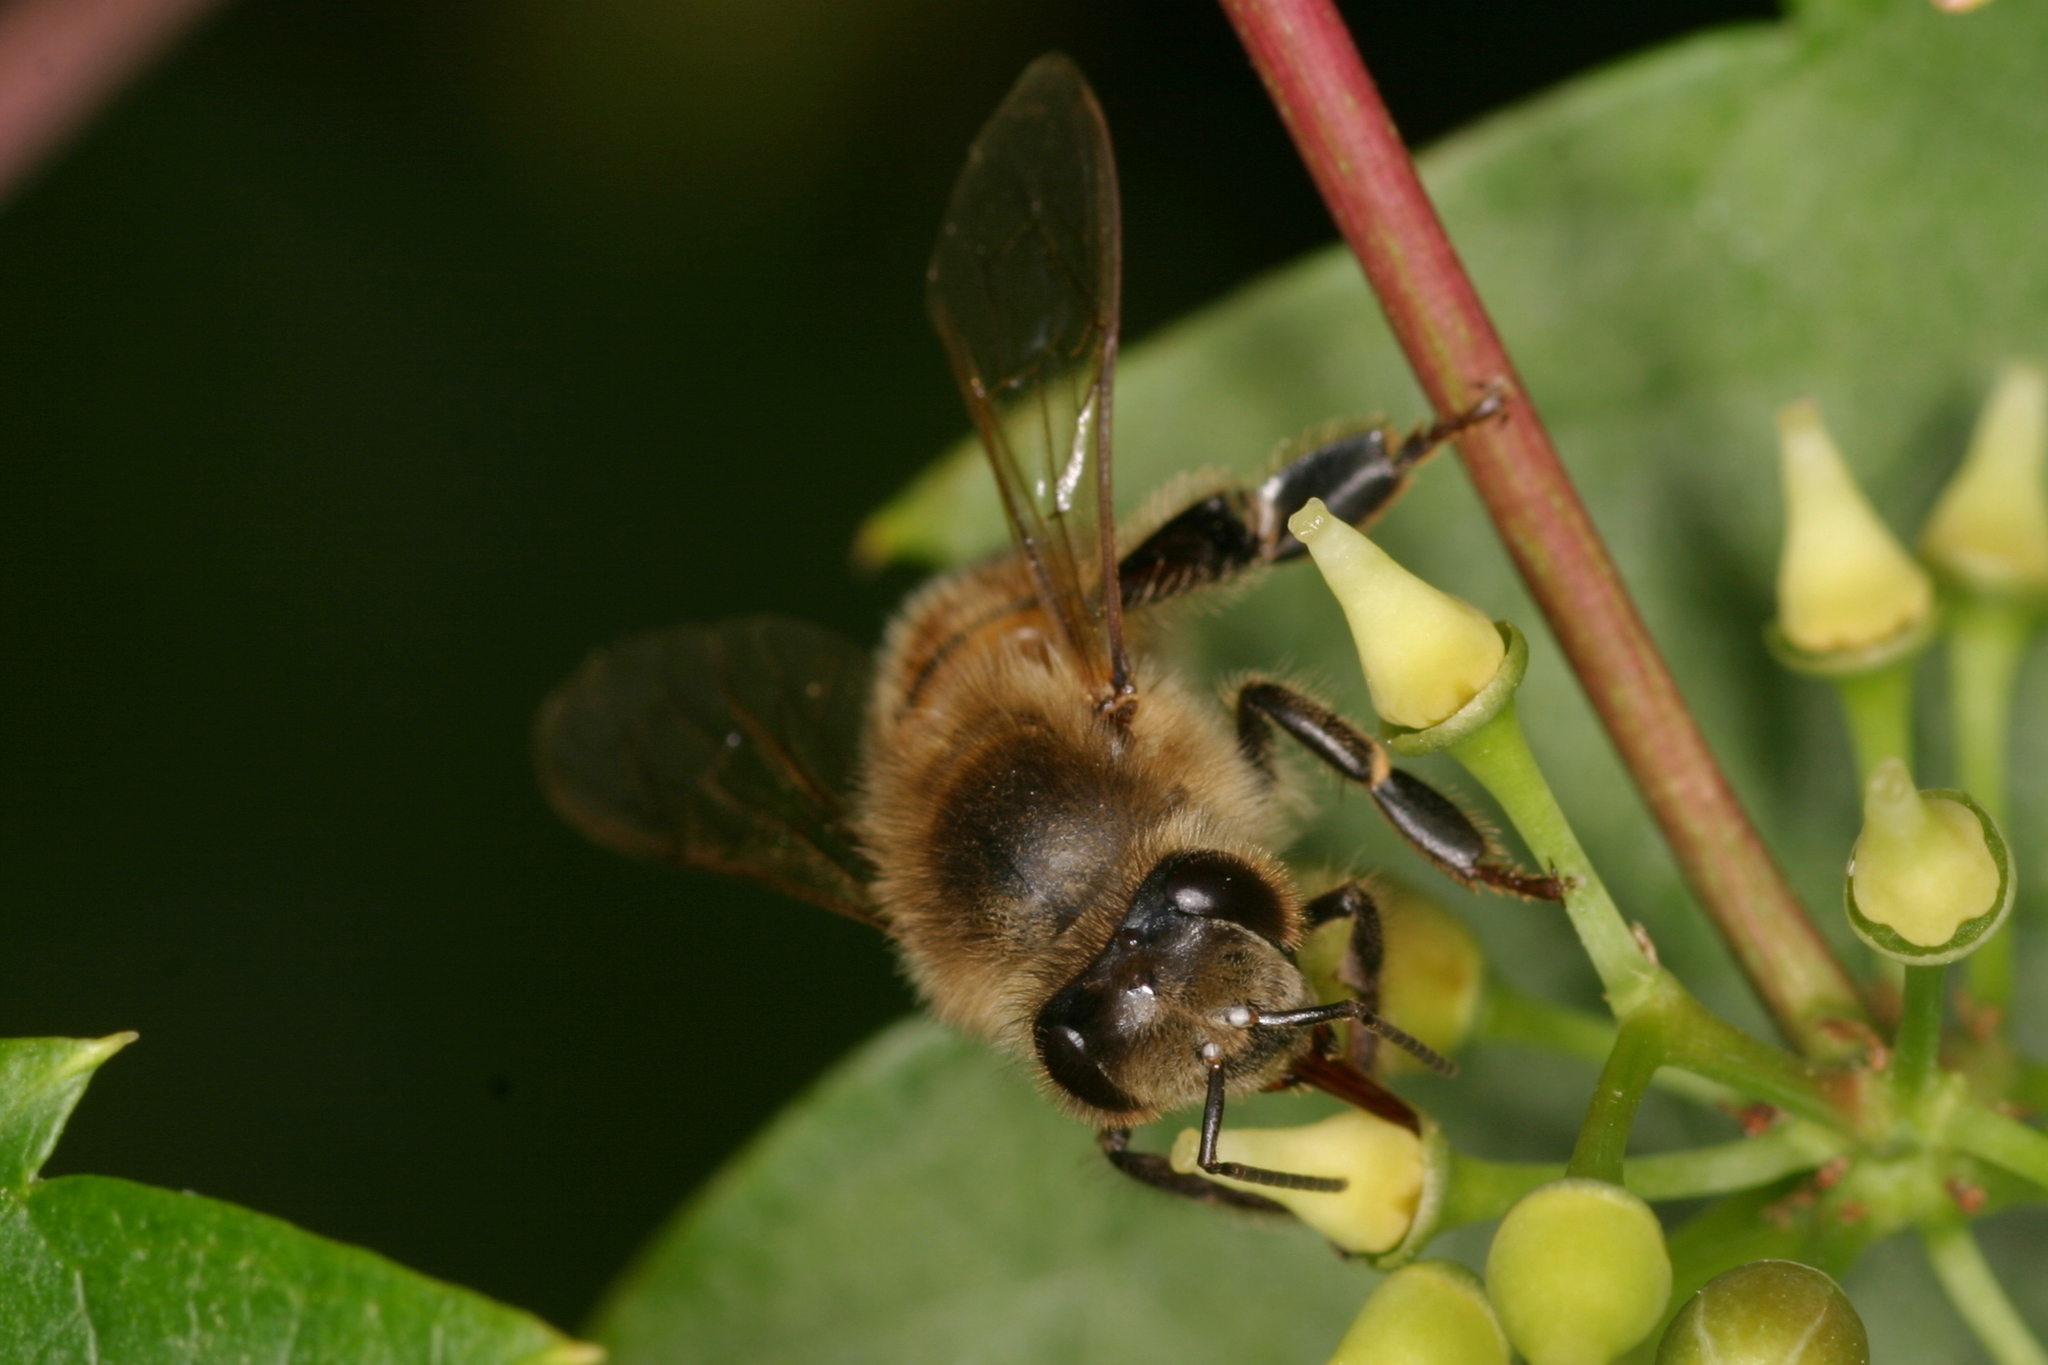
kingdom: Animalia
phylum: Arthropoda
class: Insecta
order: Hymenoptera
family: Apidae
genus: Apis
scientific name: Apis mellifera
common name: Honey bee
